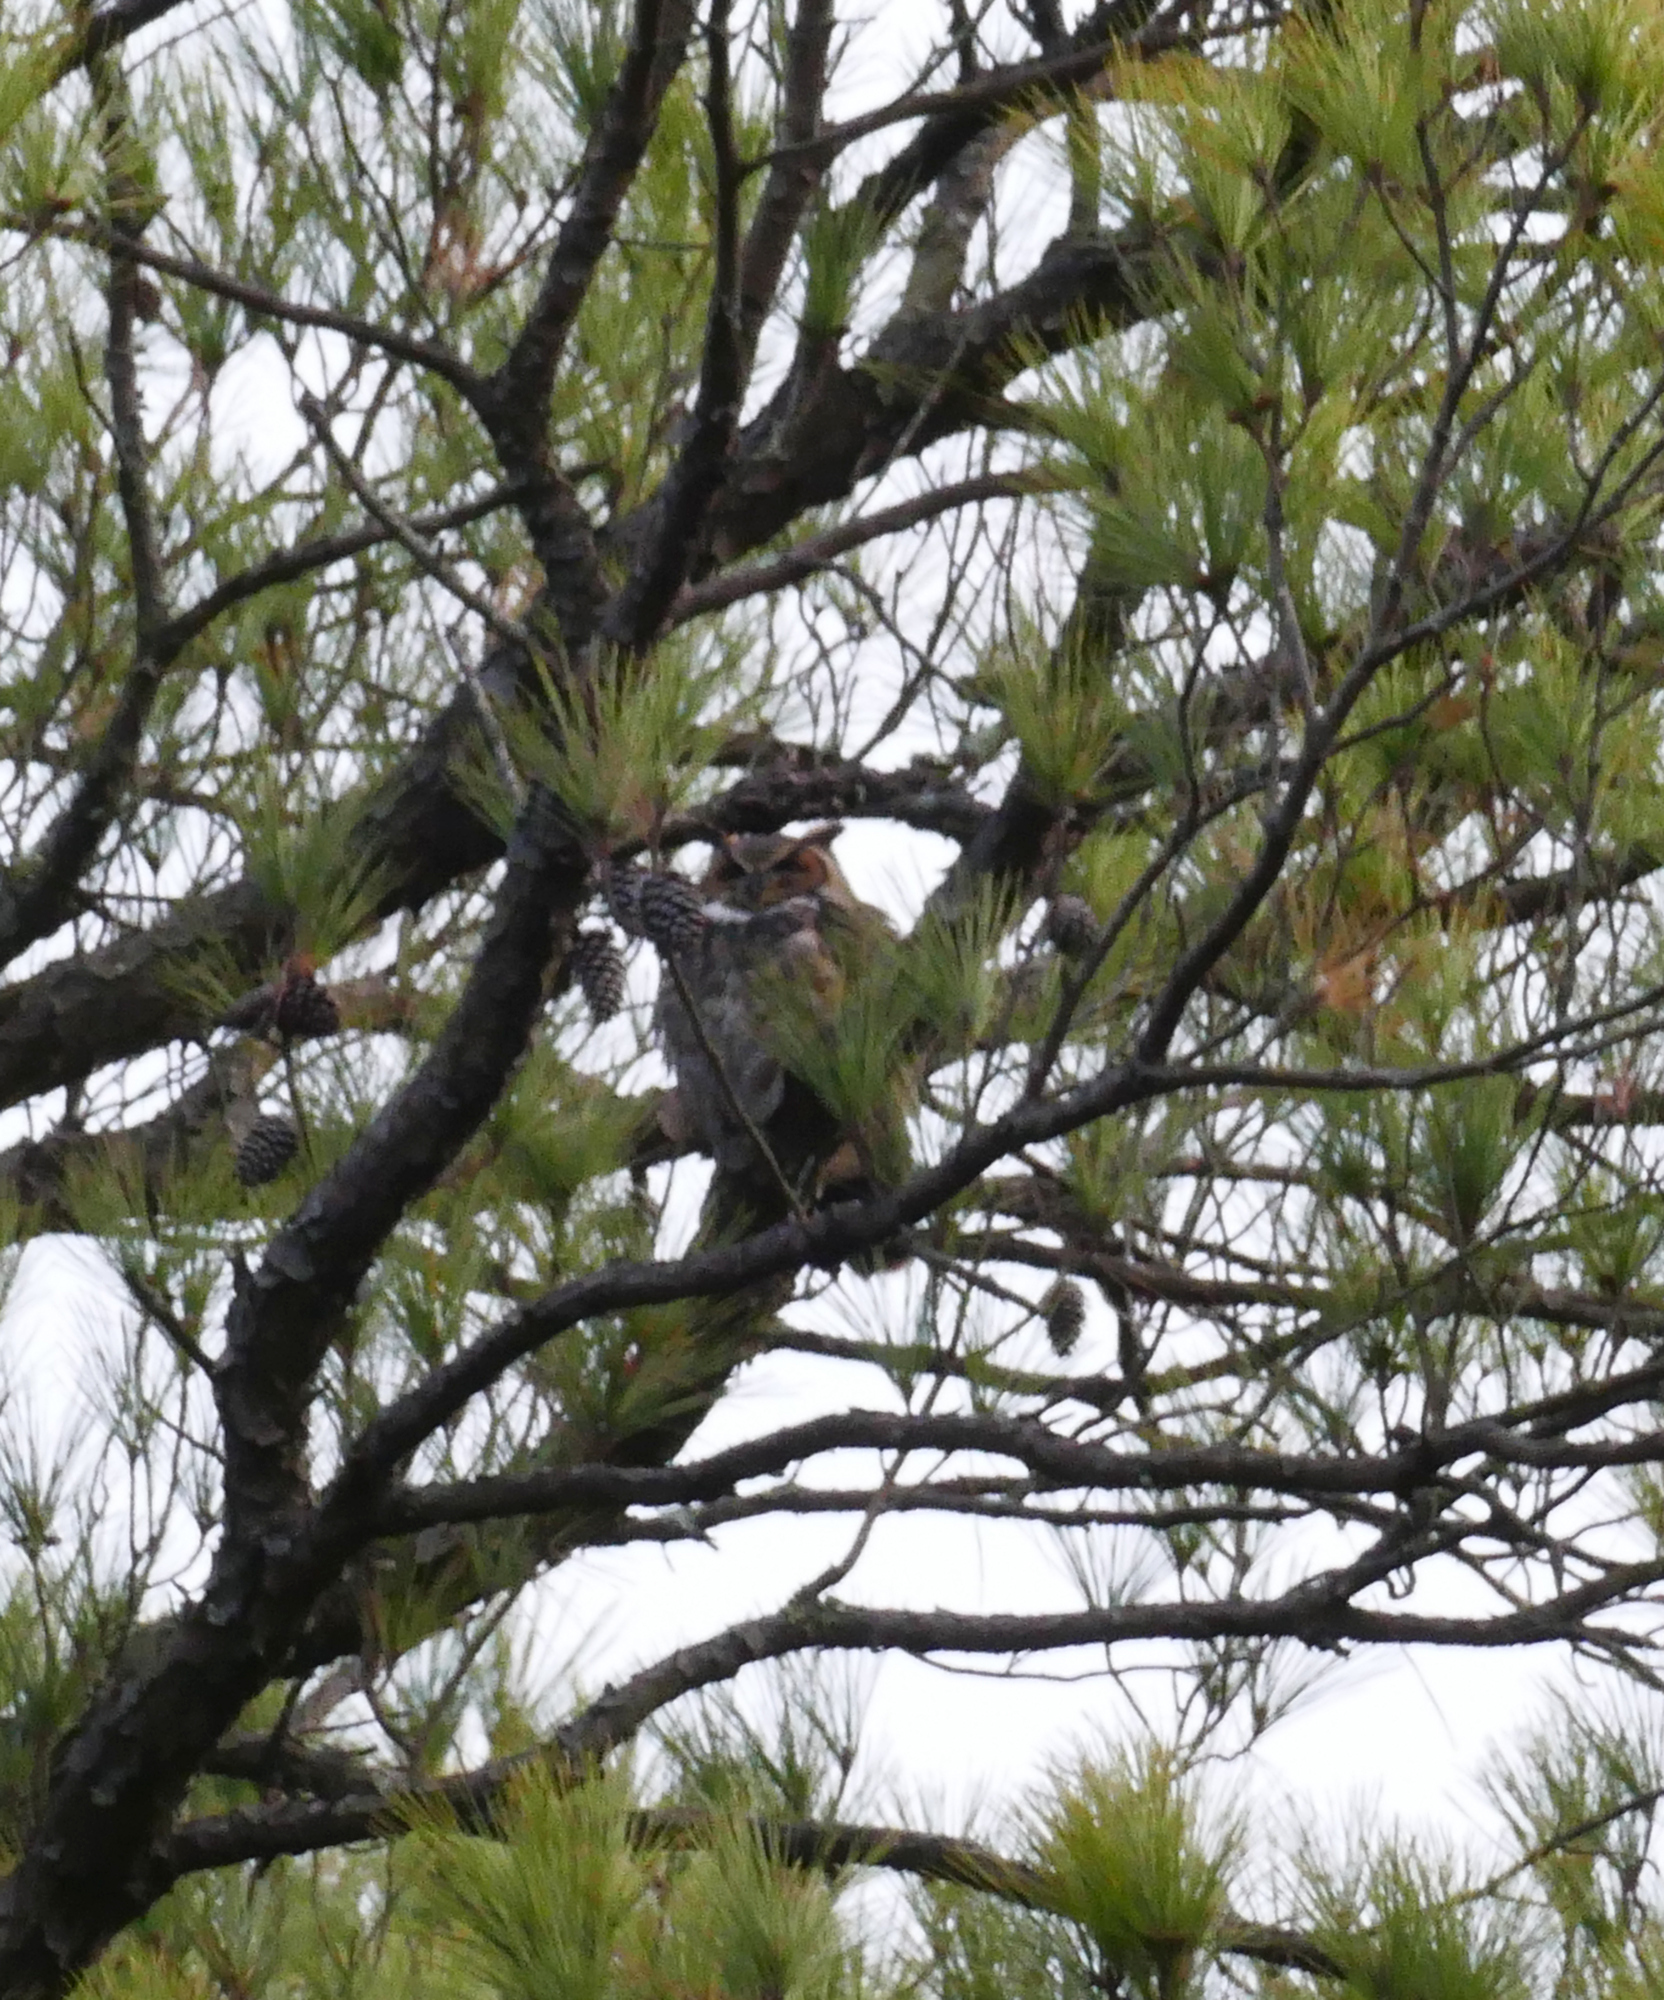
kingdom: Animalia
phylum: Chordata
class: Aves
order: Strigiformes
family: Strigidae
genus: Bubo
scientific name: Bubo virginianus
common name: Great horned owl
